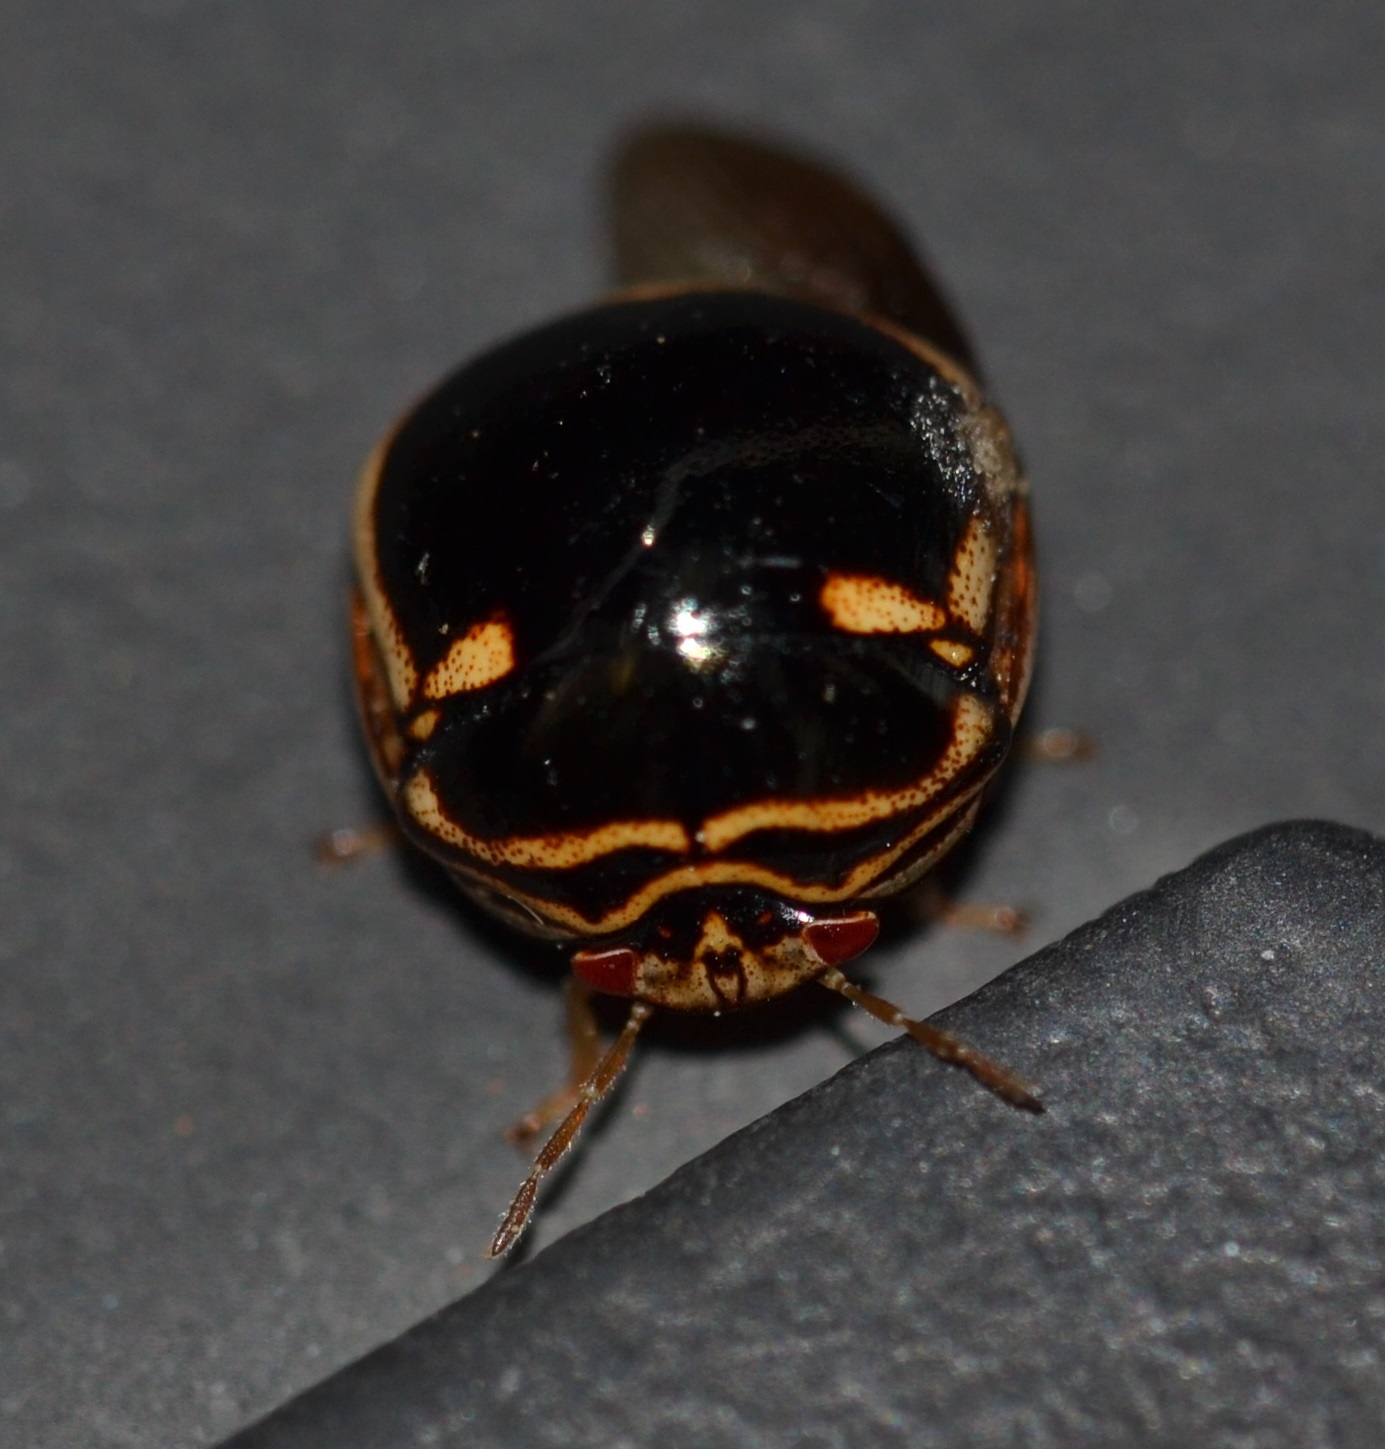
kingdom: Animalia
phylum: Arthropoda
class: Insecta
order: Hemiptera
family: Plataspidae
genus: Coptosoma
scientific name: Coptosoma
